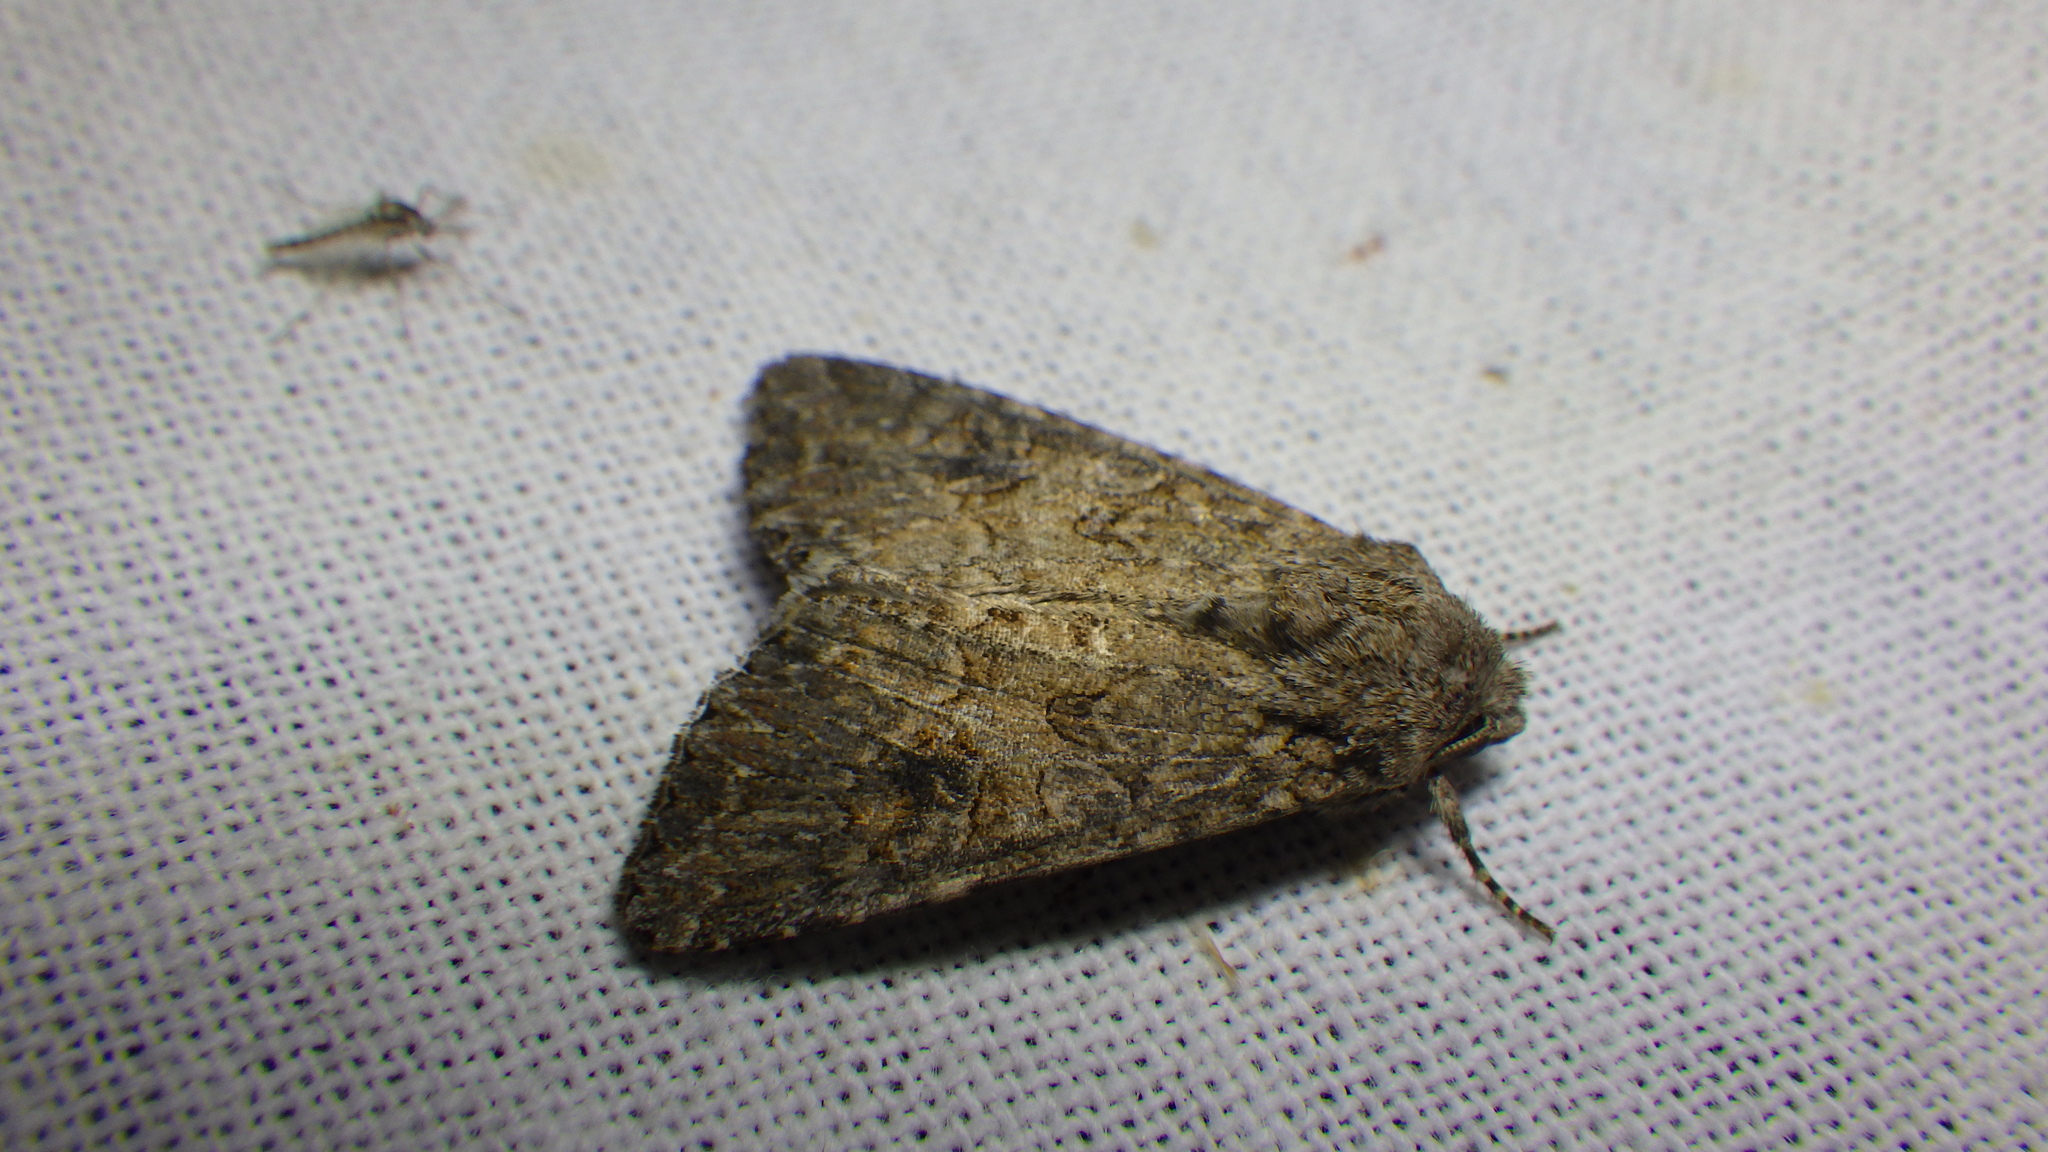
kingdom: Animalia
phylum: Arthropoda
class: Insecta
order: Lepidoptera
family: Noctuidae
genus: Anarta
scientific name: Anarta trifolii
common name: Clover cutworm moth
